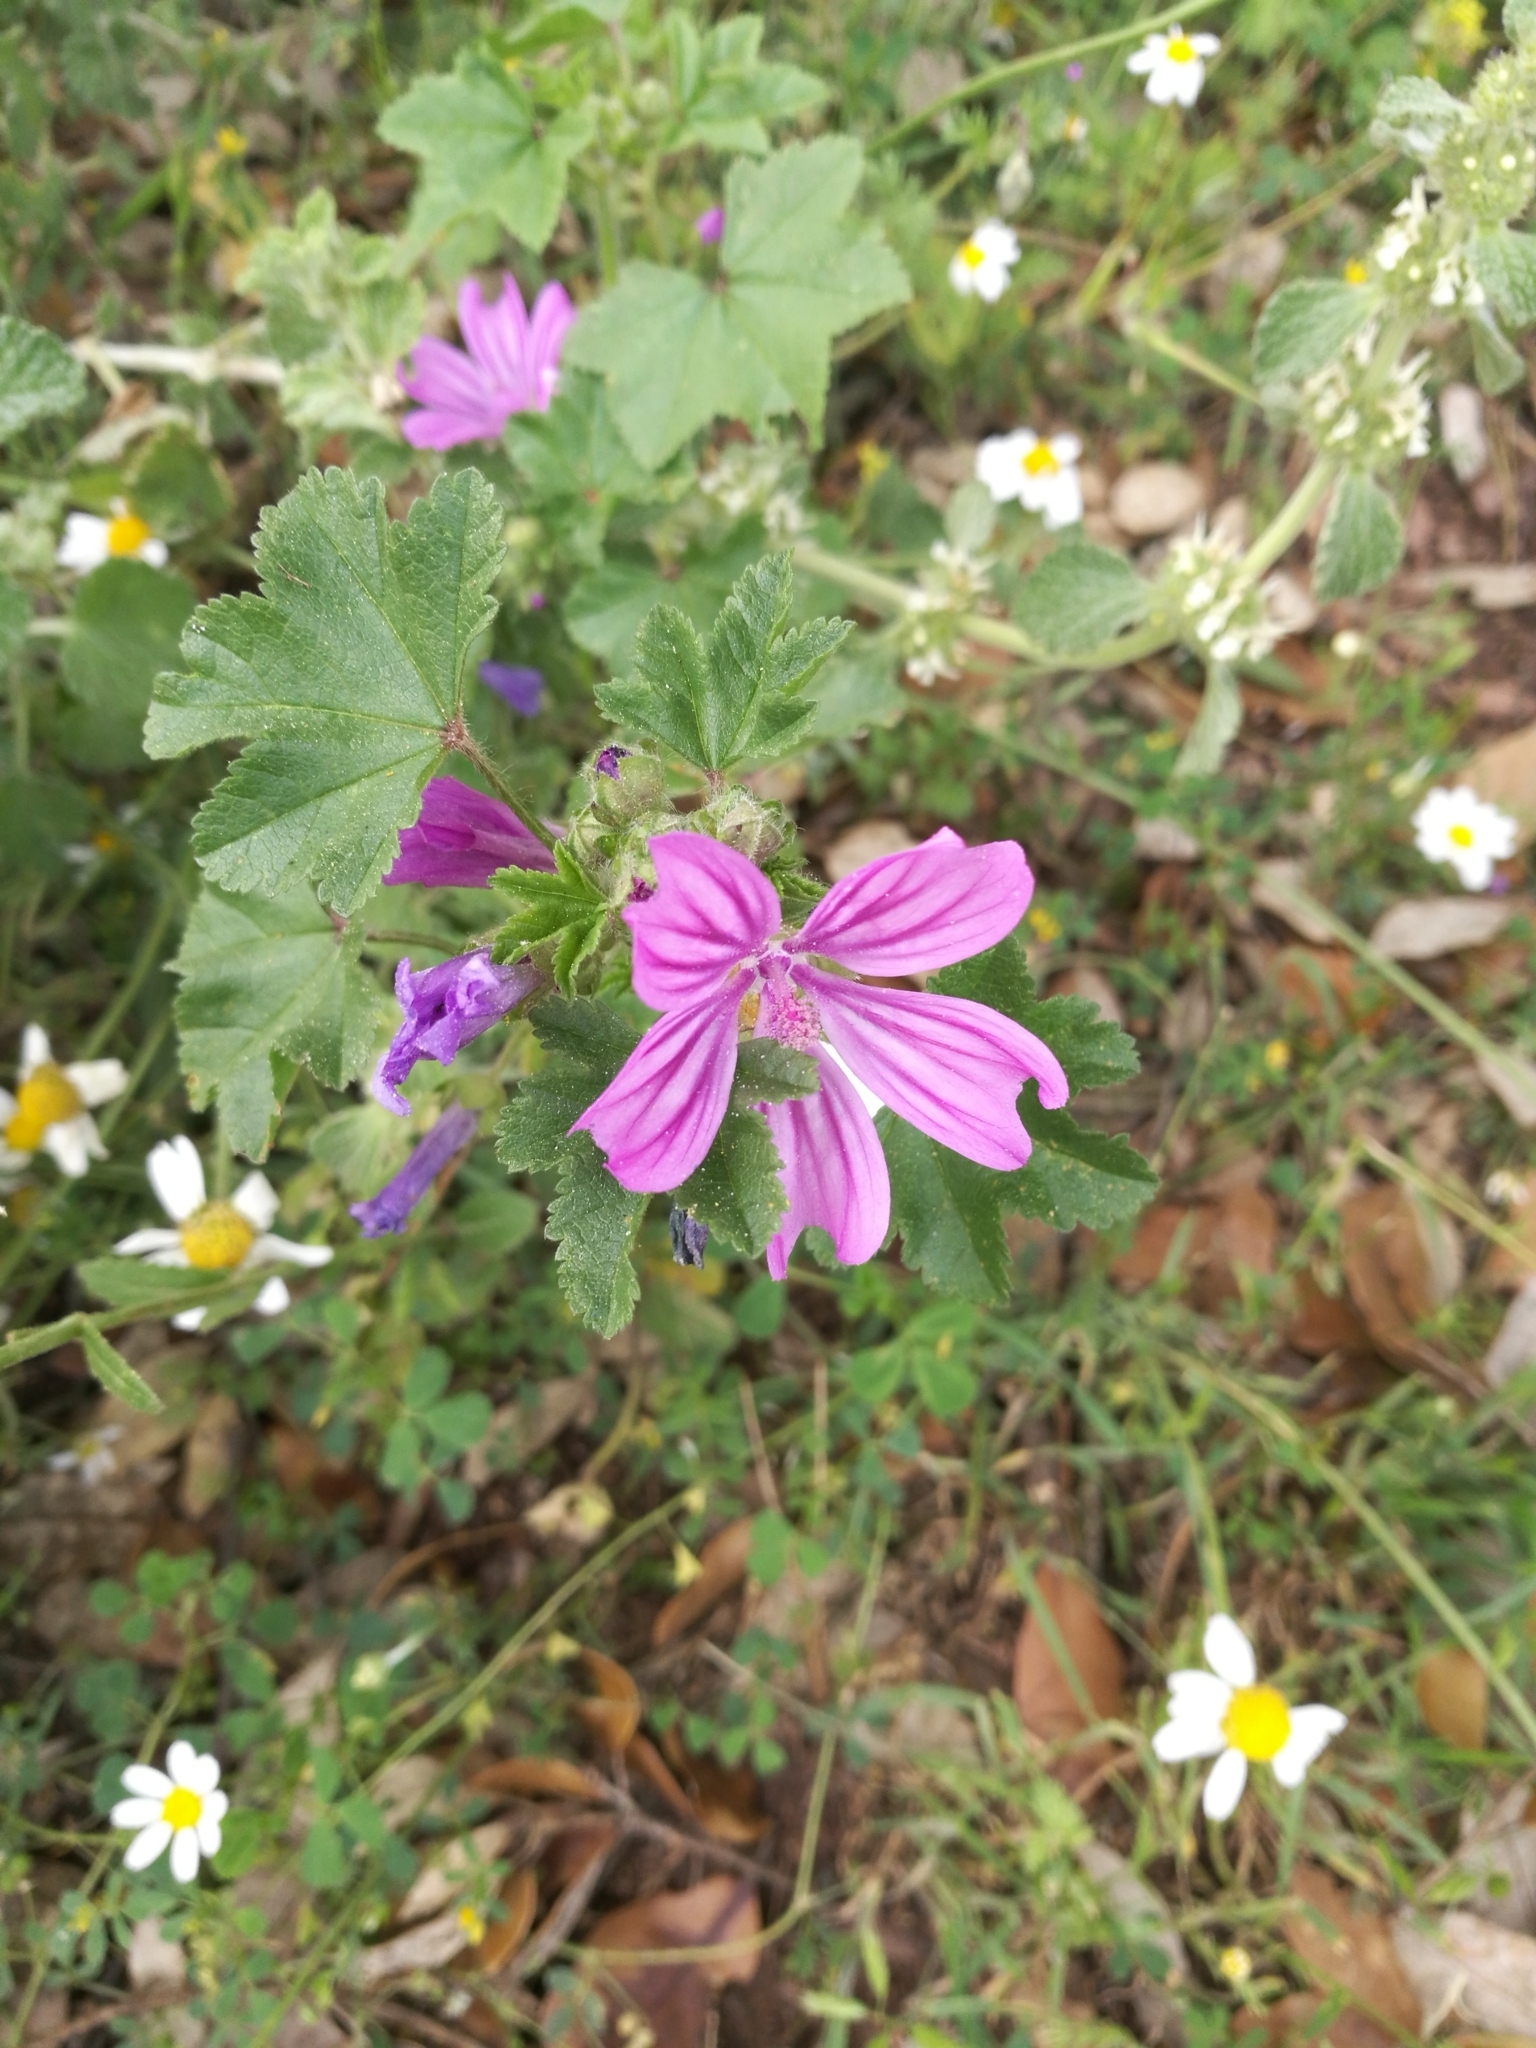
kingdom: Plantae
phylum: Tracheophyta
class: Magnoliopsida
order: Malvales
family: Malvaceae
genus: Malva
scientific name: Malva sylvestris
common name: Common mallow
